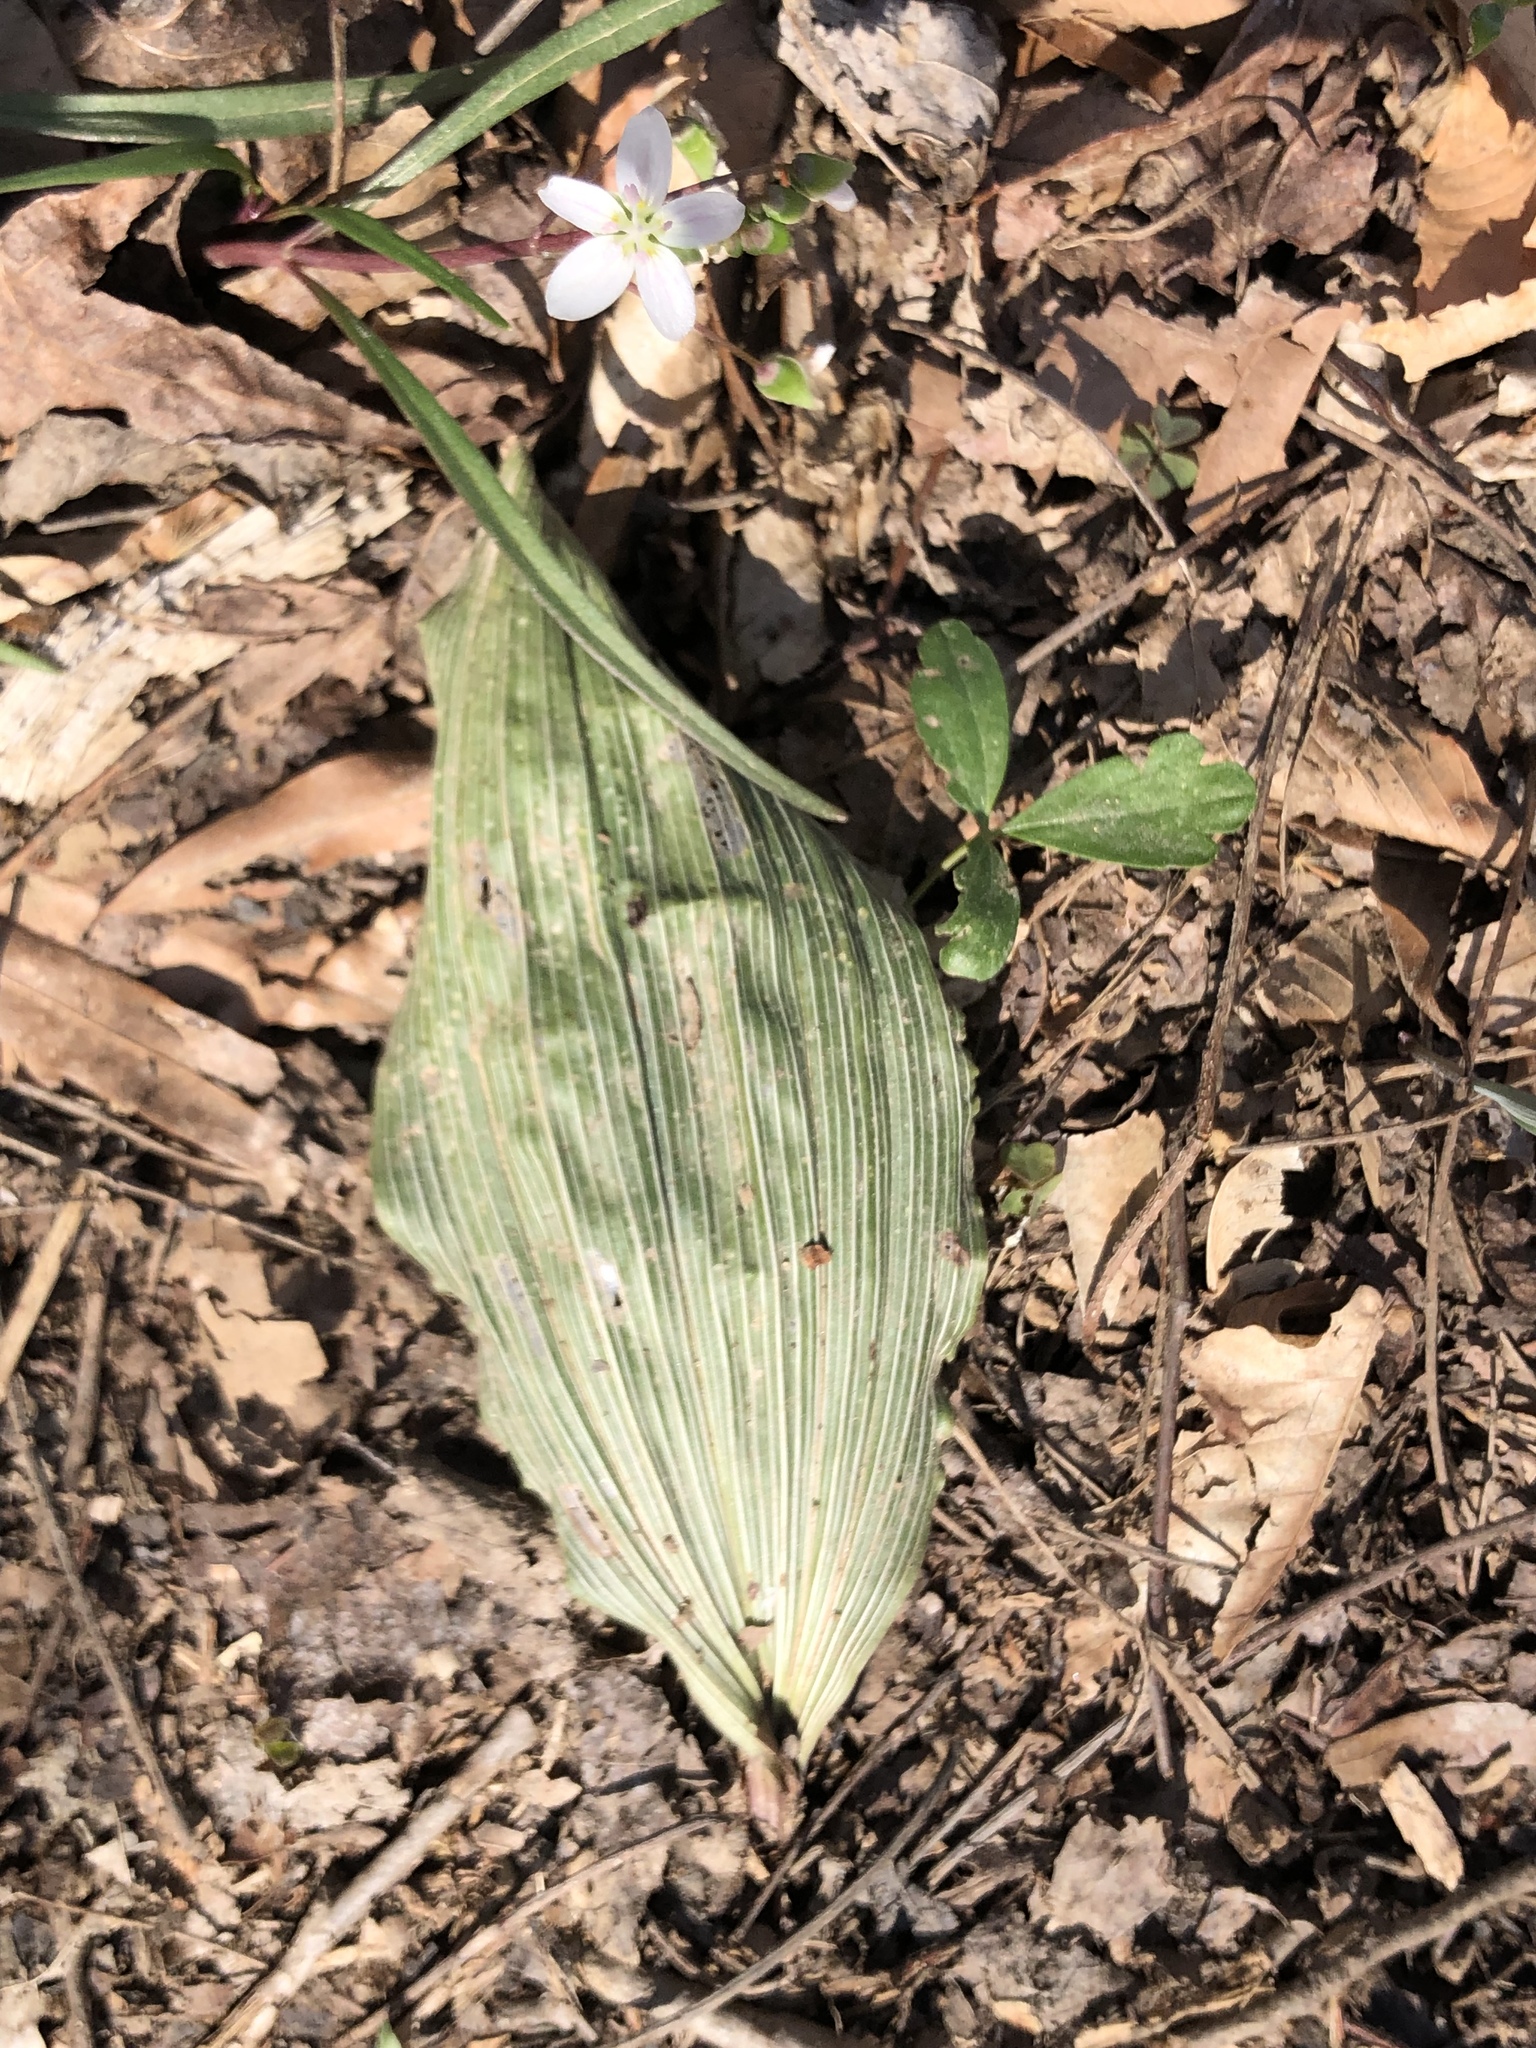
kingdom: Plantae
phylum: Tracheophyta
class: Liliopsida
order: Asparagales
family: Orchidaceae
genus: Aplectrum
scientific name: Aplectrum hyemale
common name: Adam-and-eve
